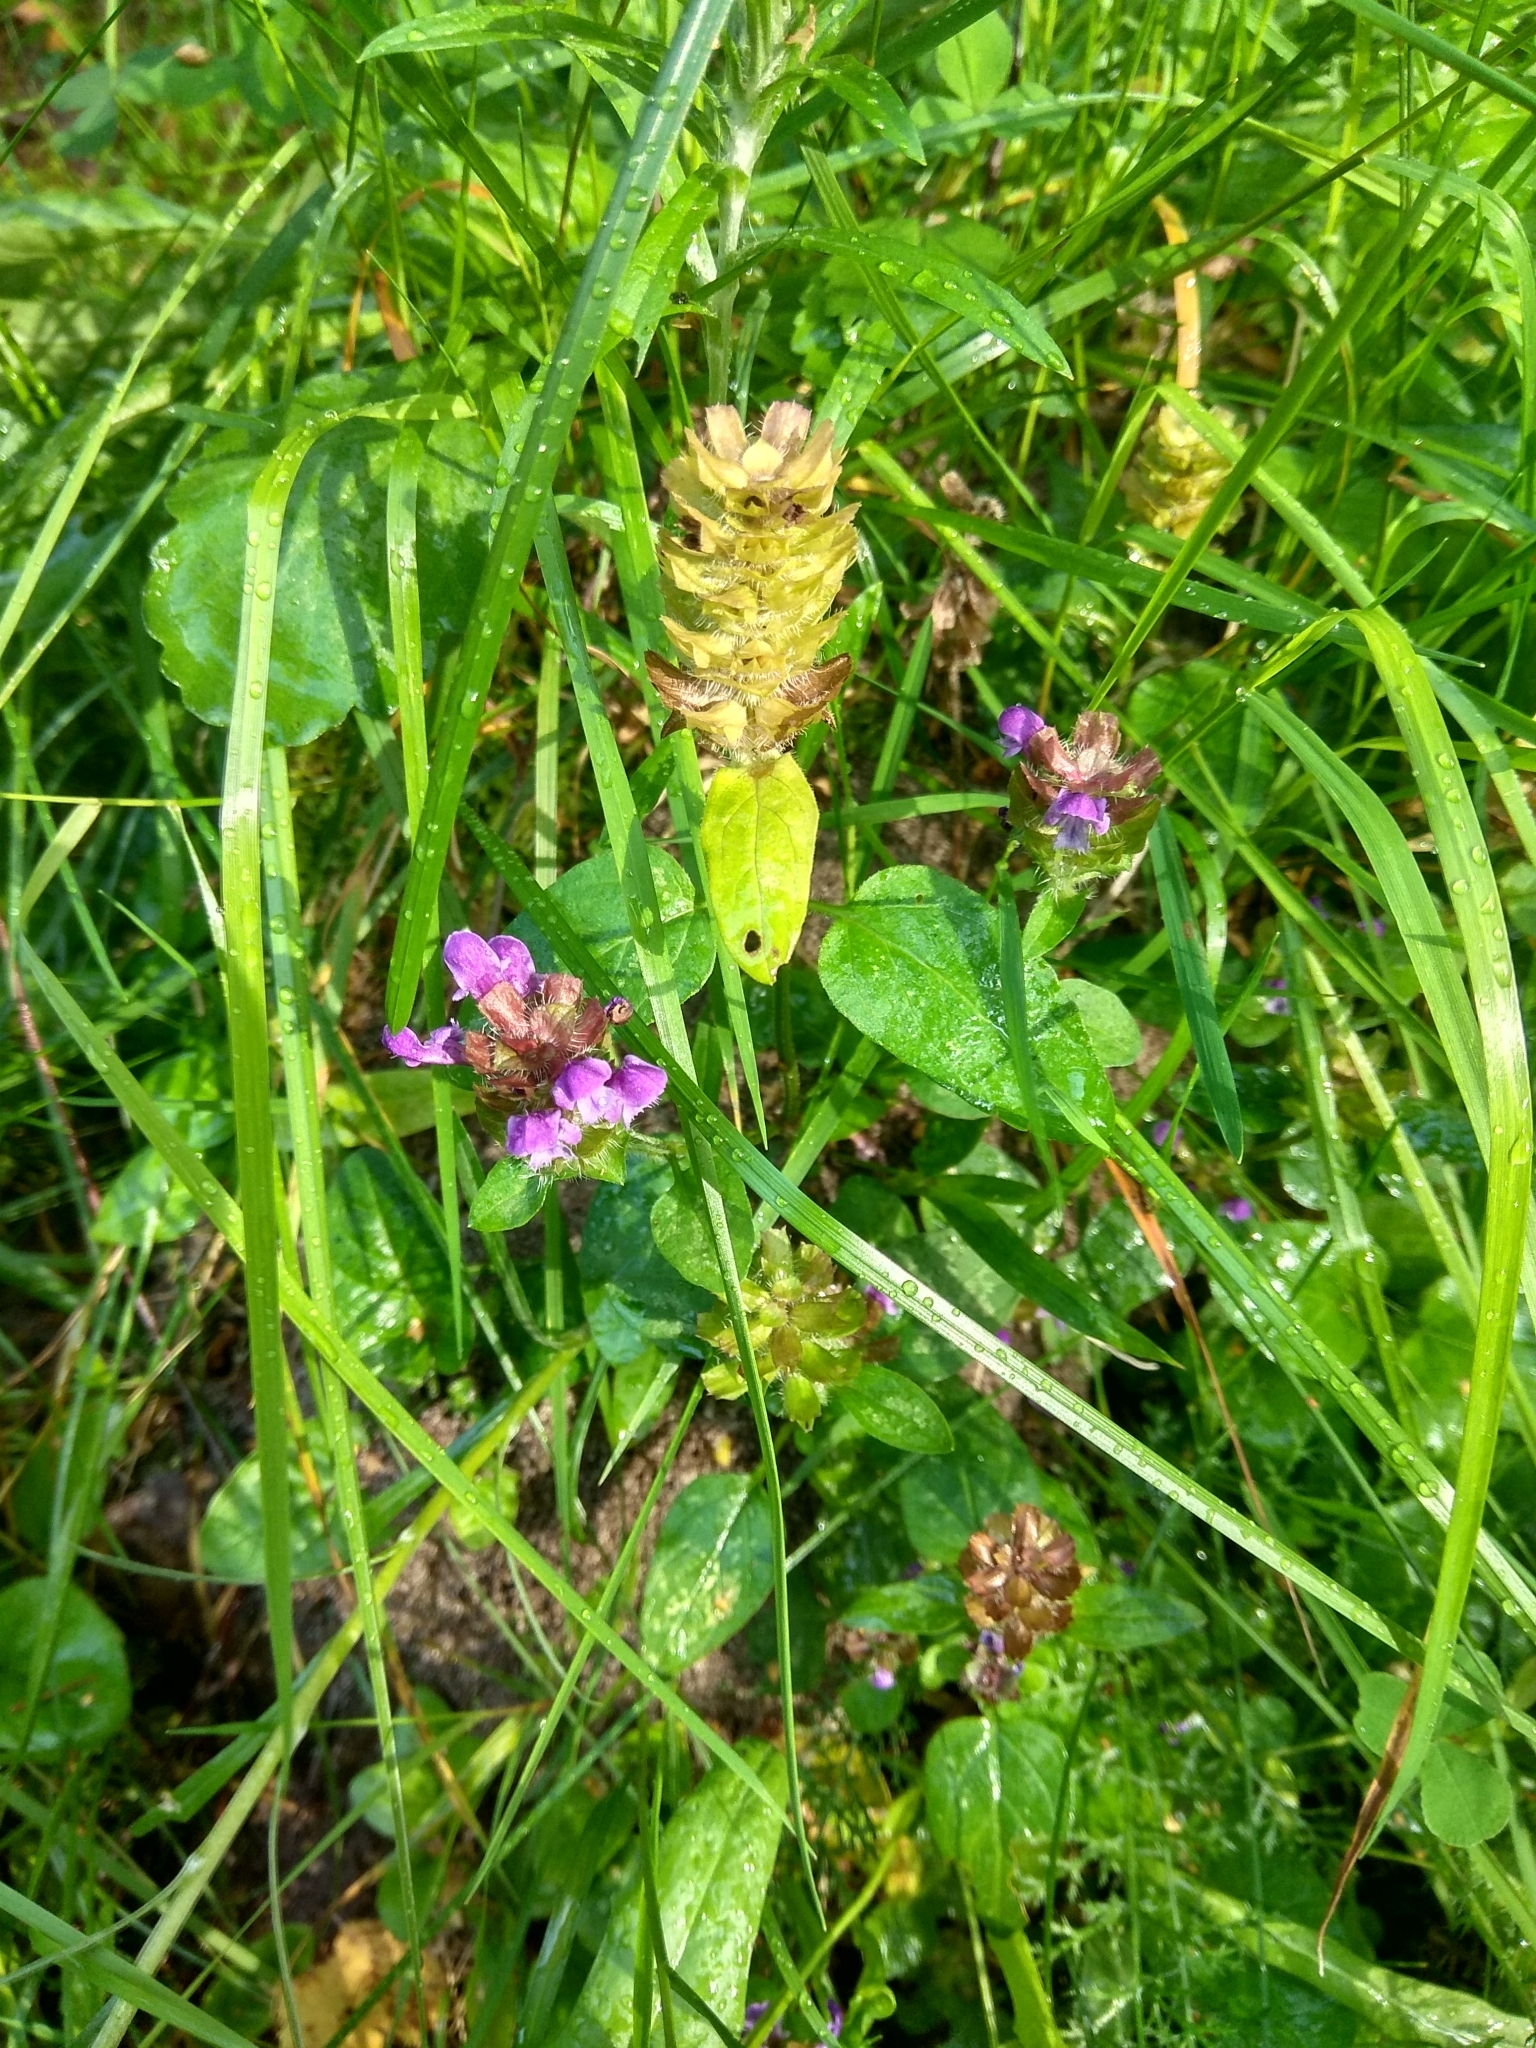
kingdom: Plantae
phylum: Tracheophyta
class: Magnoliopsida
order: Lamiales
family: Lamiaceae
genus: Prunella
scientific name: Prunella vulgaris
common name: Heal-all
